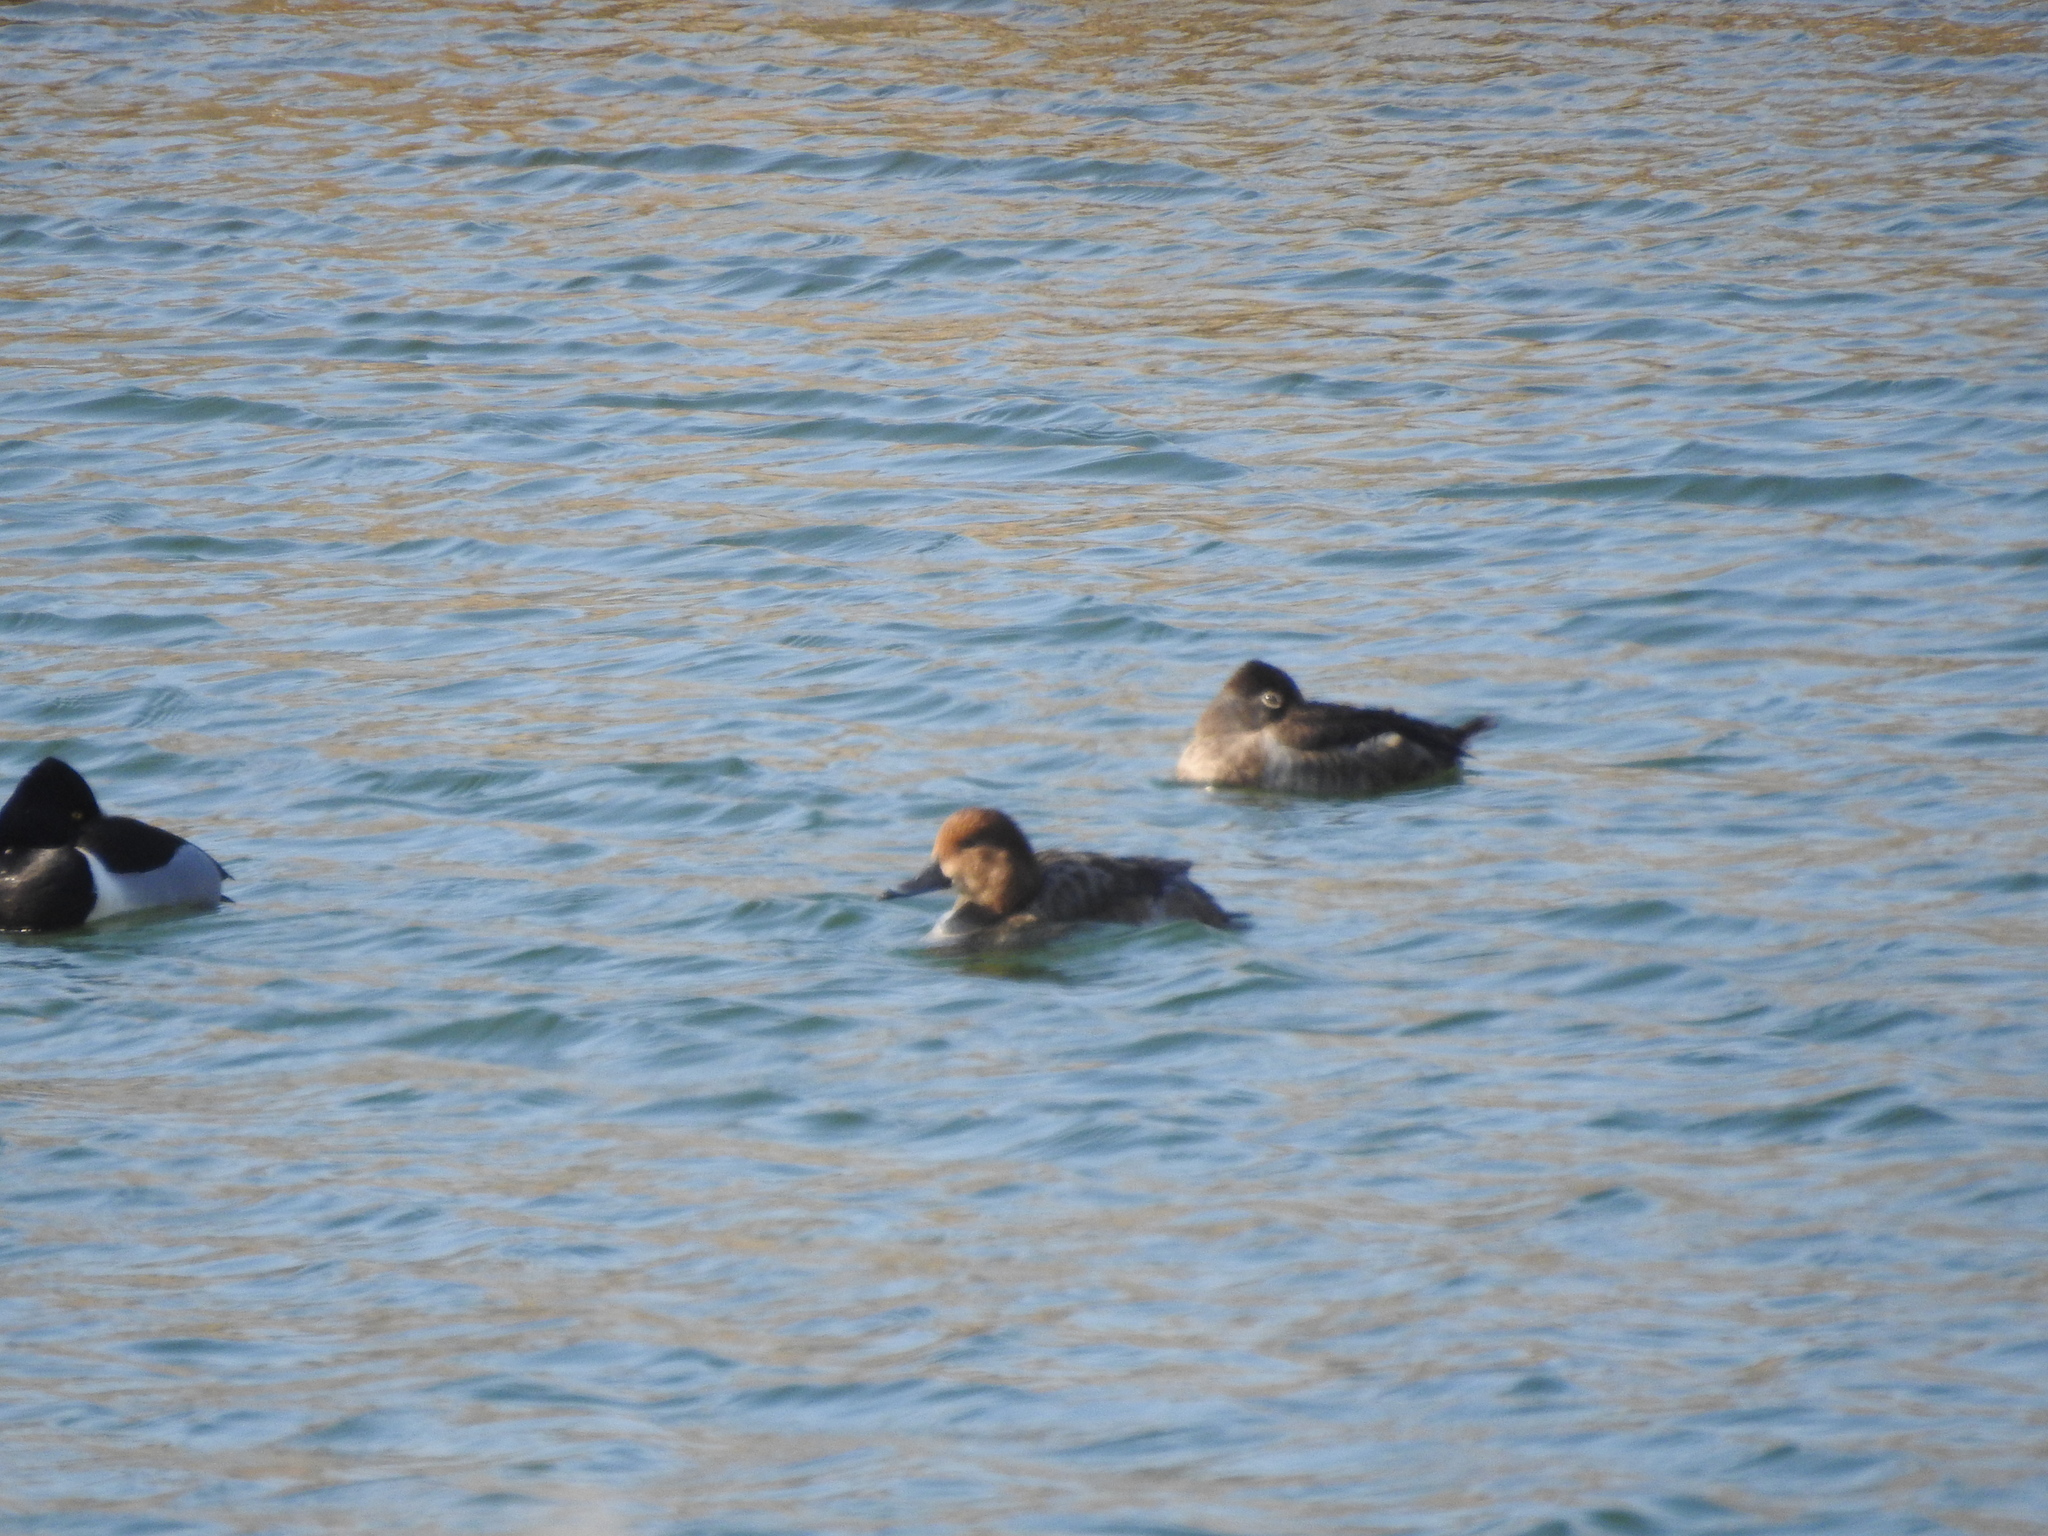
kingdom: Animalia
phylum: Chordata
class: Aves
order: Anseriformes
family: Anatidae
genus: Aythya
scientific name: Aythya collaris
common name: Ring-necked duck
